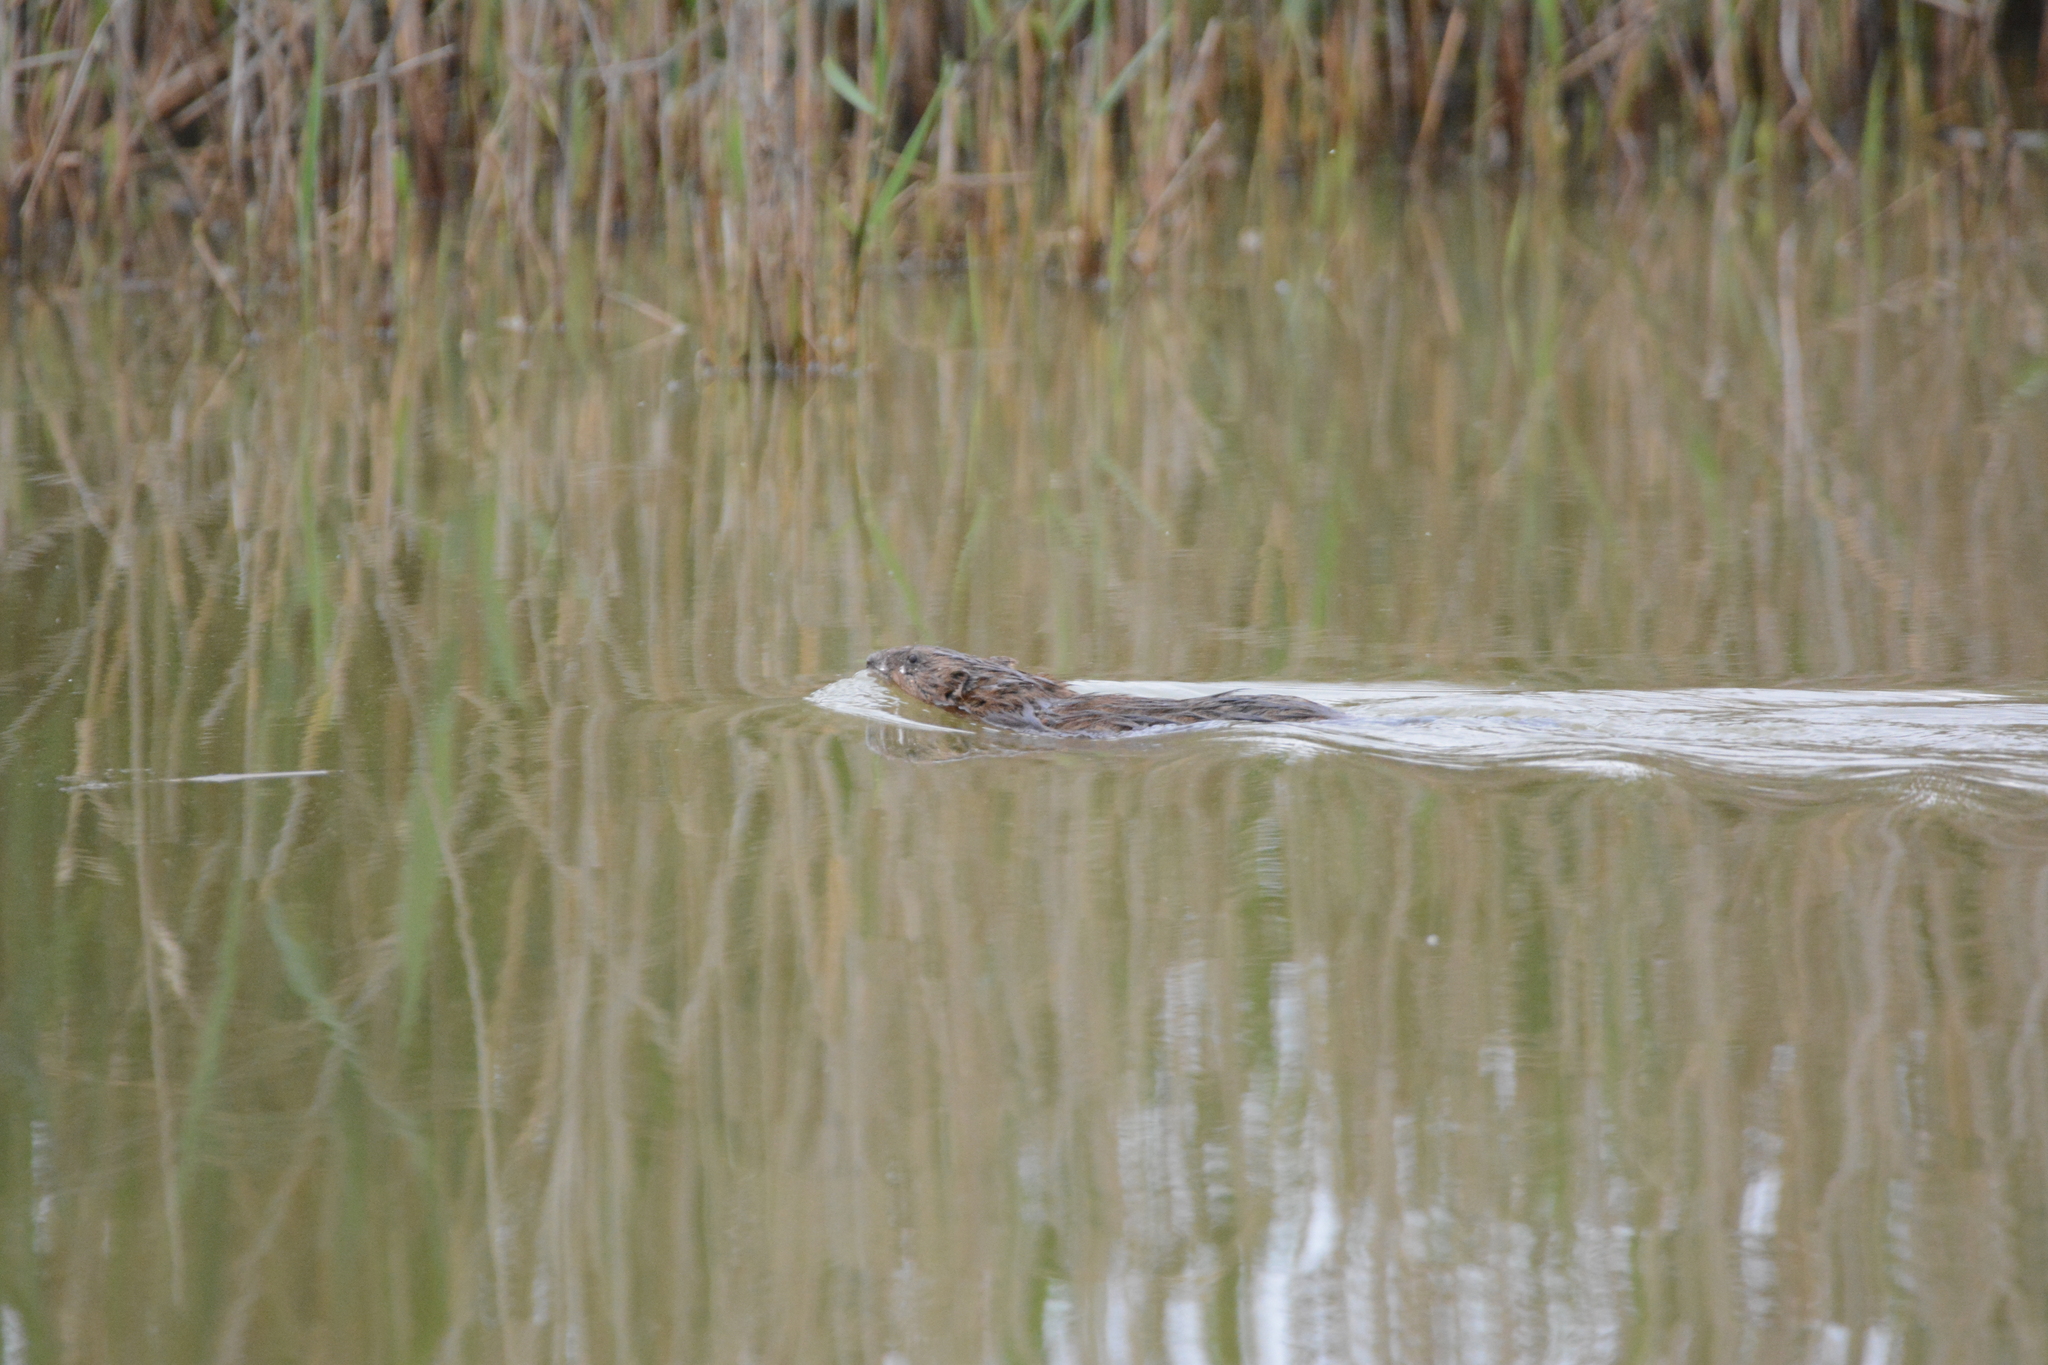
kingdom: Animalia
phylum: Chordata
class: Mammalia
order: Rodentia
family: Cricetidae
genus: Ondatra
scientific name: Ondatra zibethicus
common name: Muskrat
